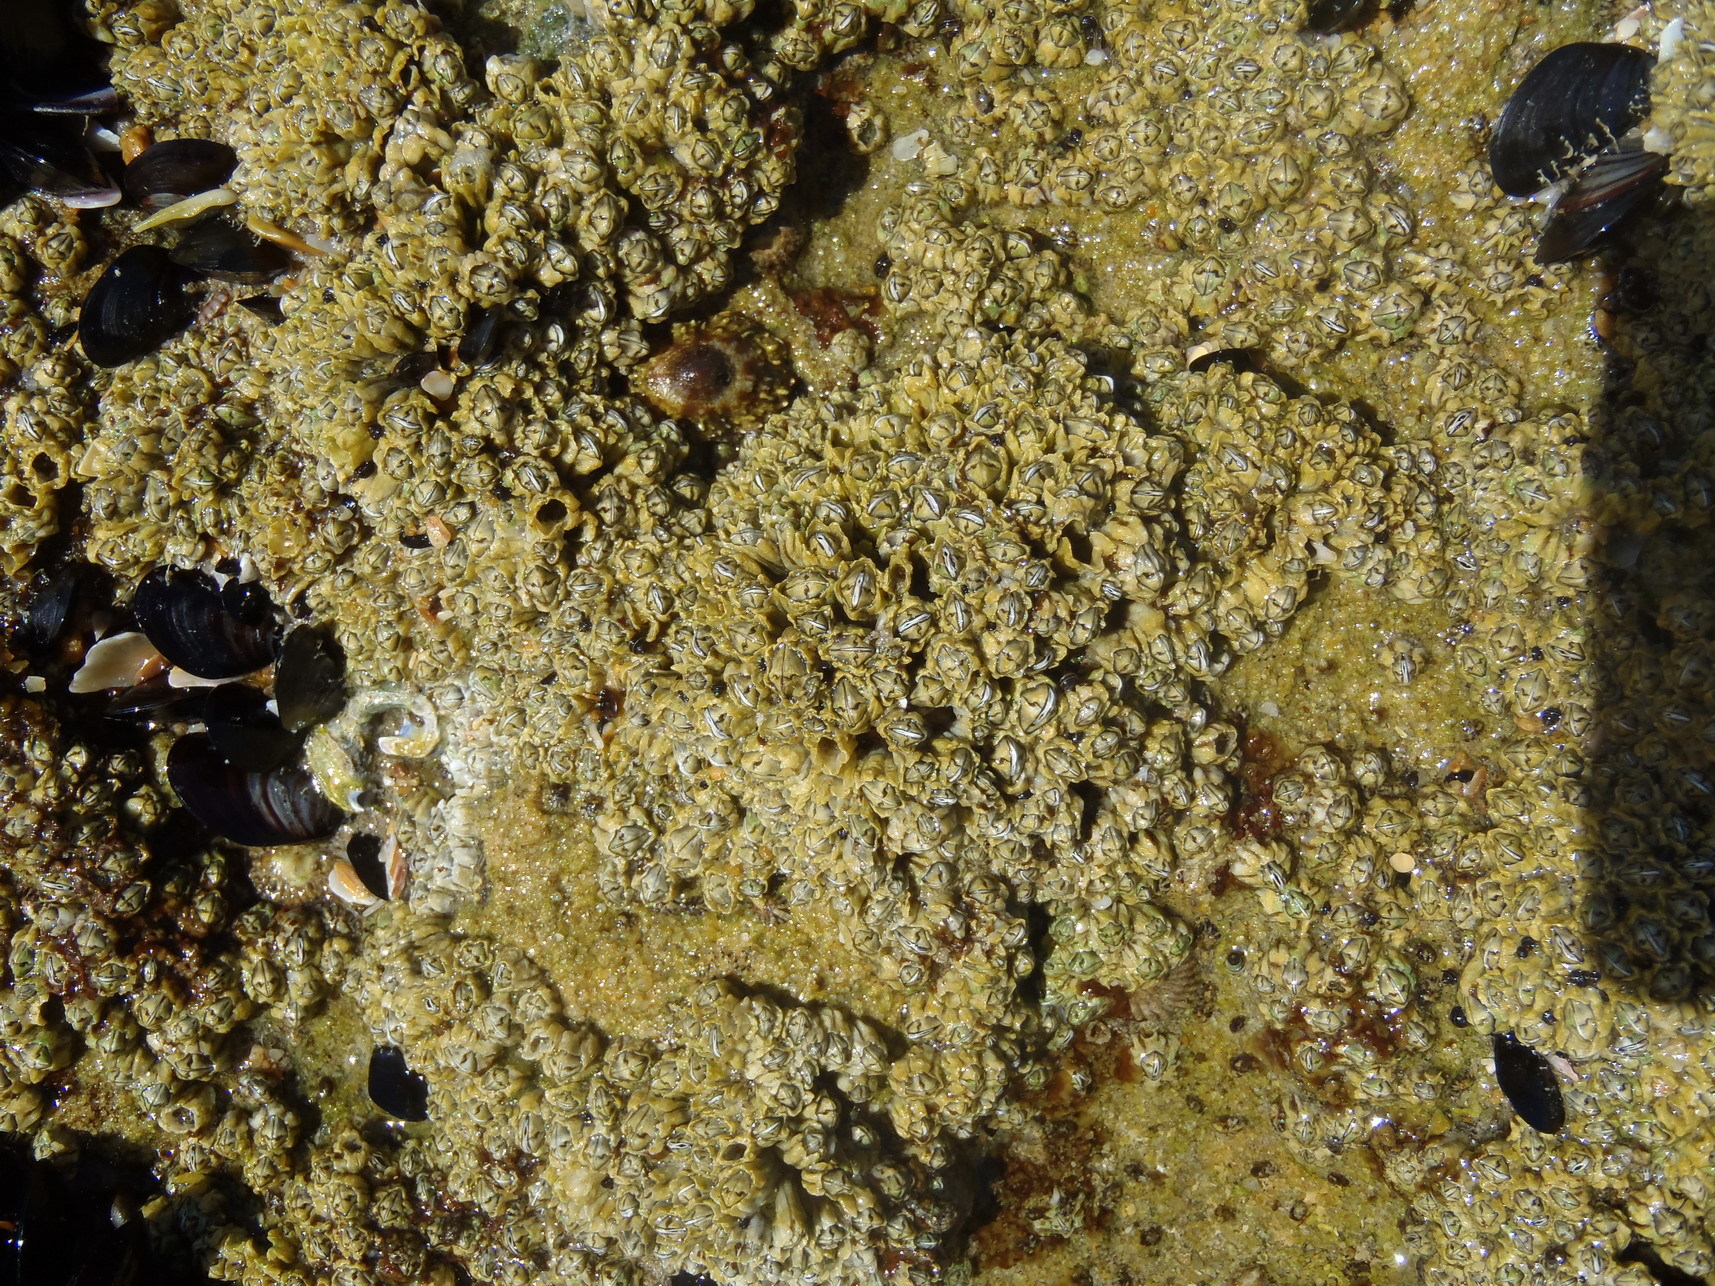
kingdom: Animalia
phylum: Arthropoda
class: Maxillopoda
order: Sessilia
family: Chthamalidae
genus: Chthamalus
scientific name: Chthamalus dentatus
